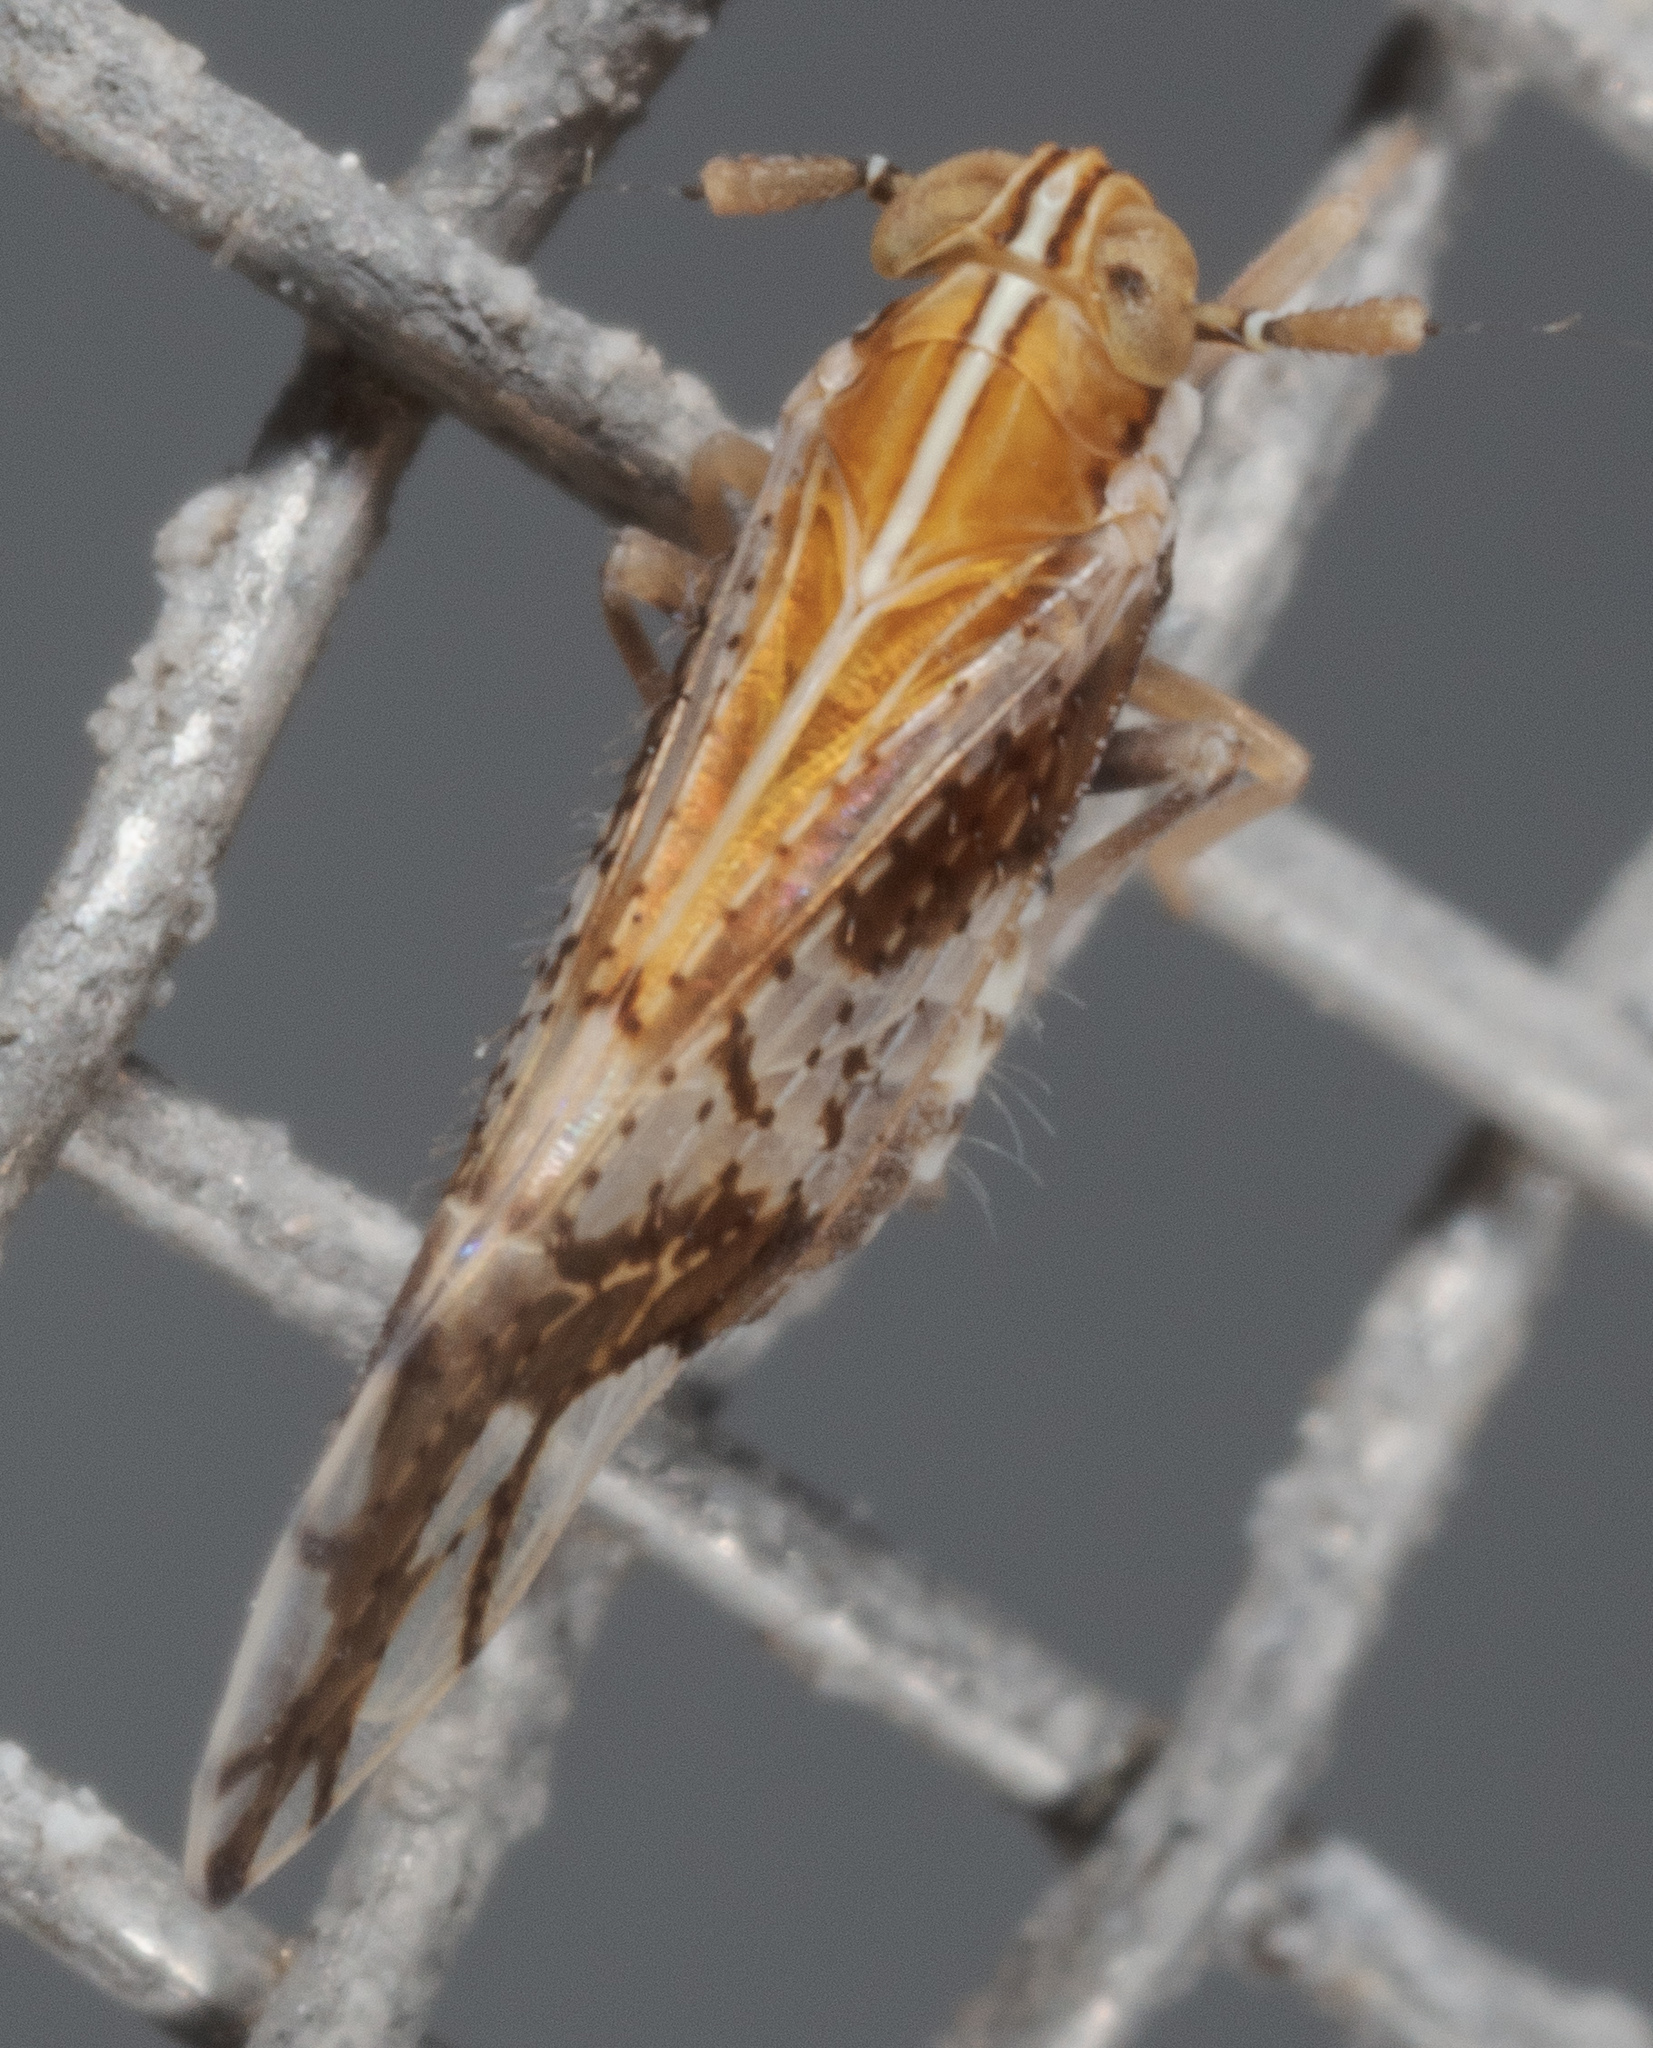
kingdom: Animalia
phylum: Arthropoda
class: Insecta
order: Hemiptera
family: Delphacidae
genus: Liburniella
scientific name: Liburniella ornata
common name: Ornate planthopper
